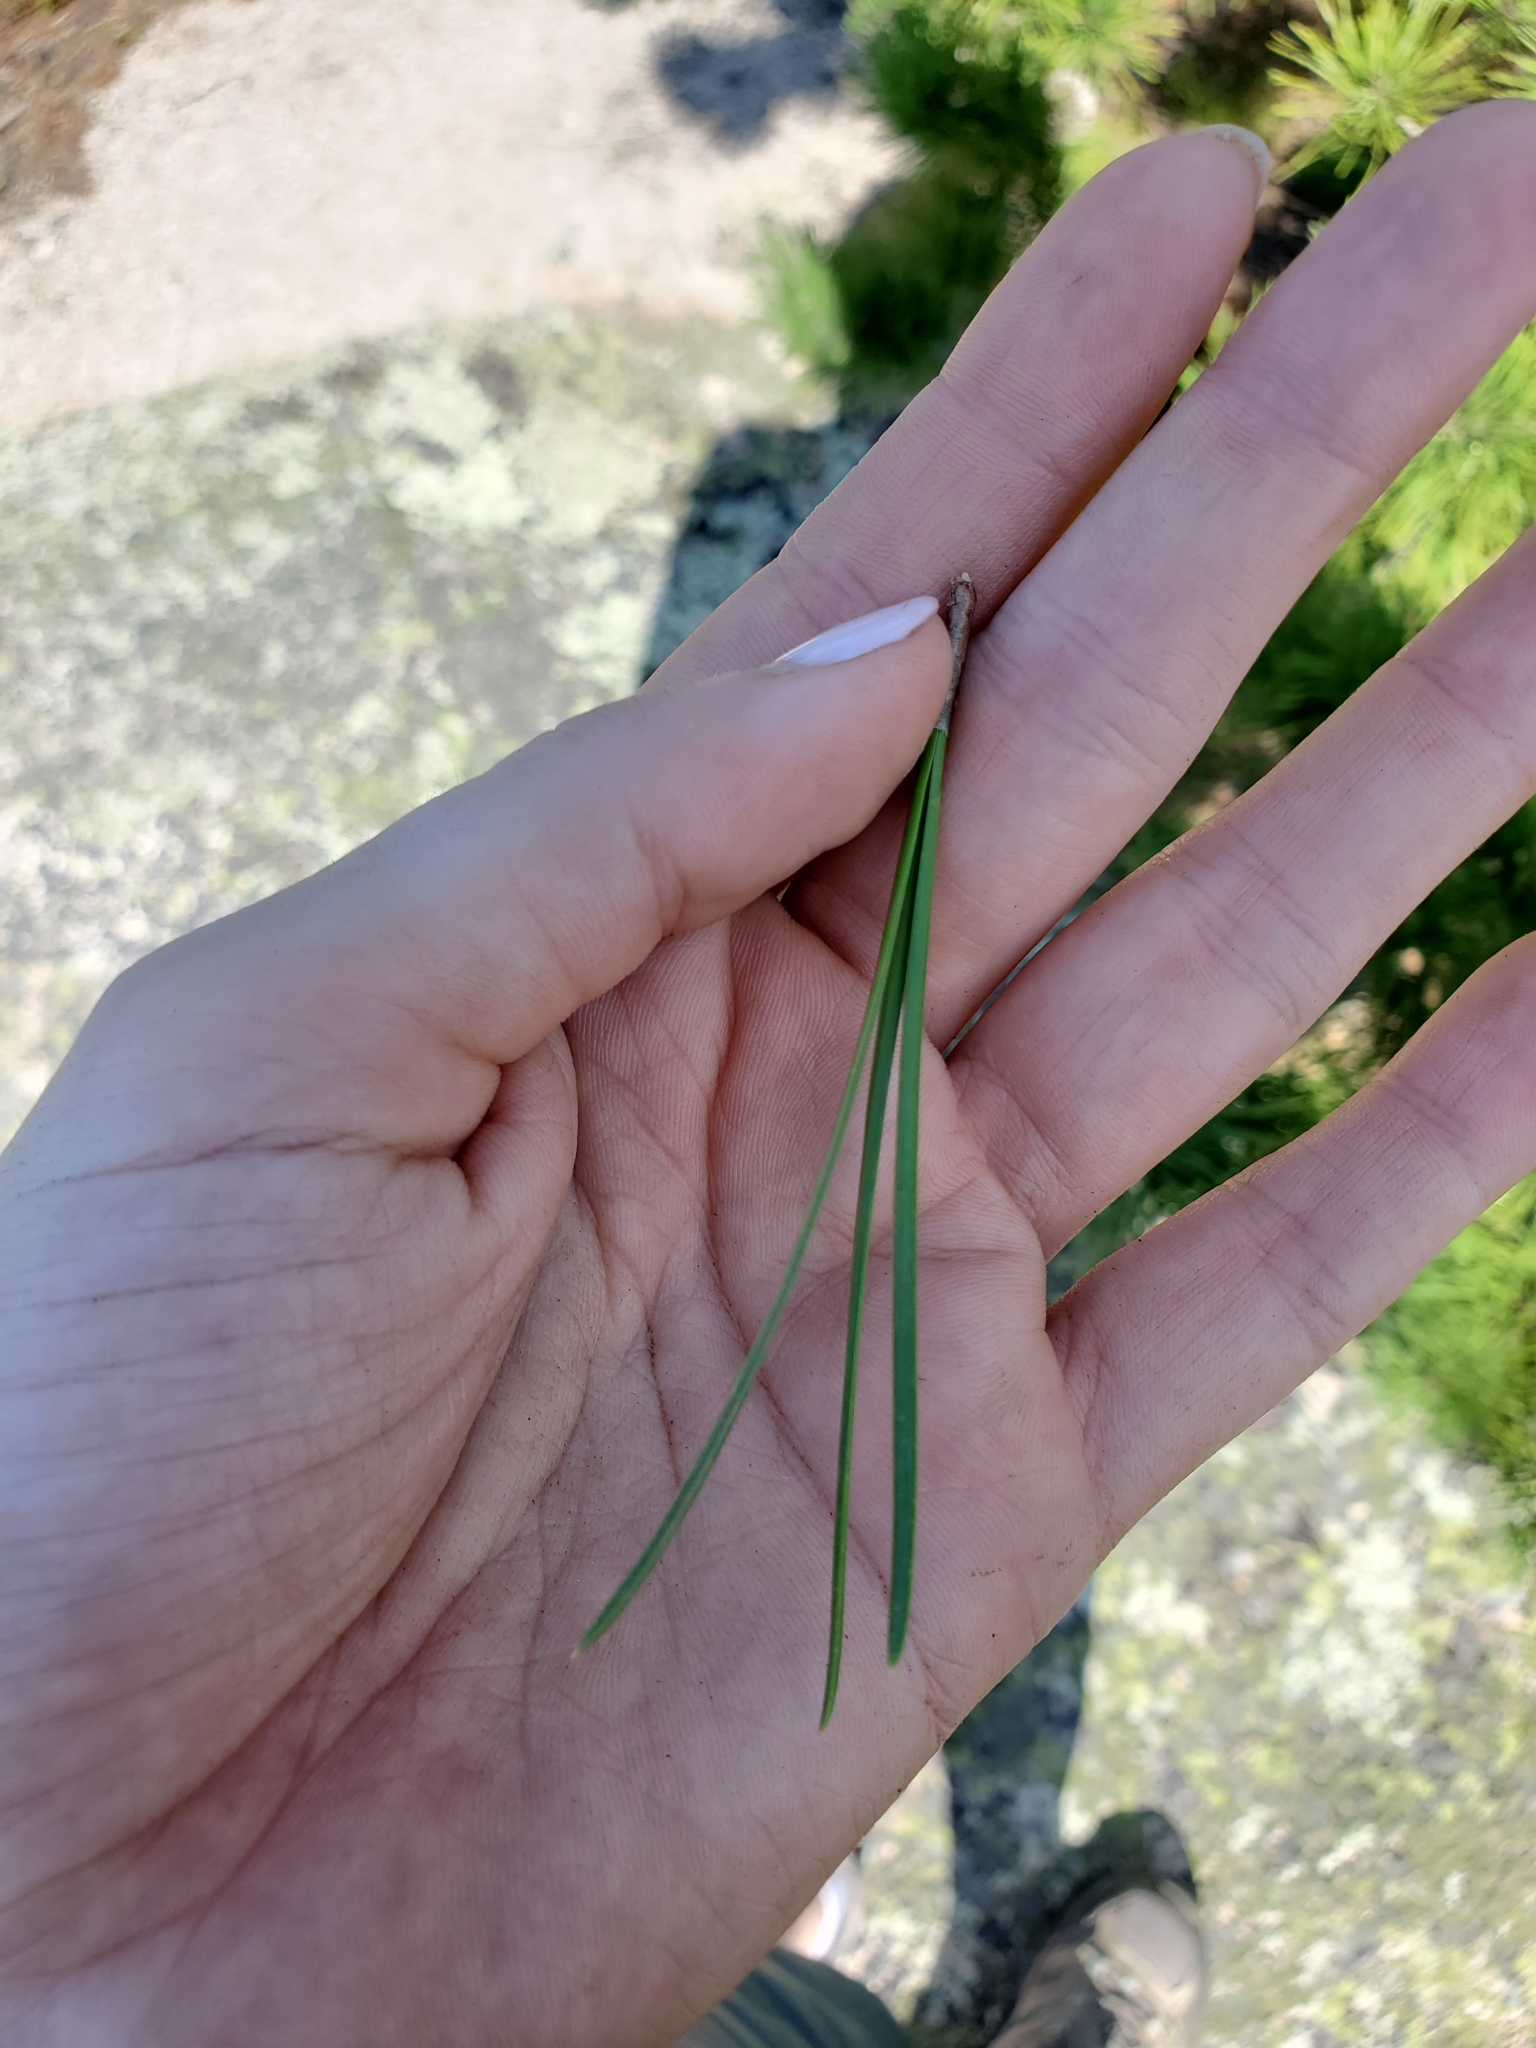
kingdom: Plantae
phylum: Tracheophyta
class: Pinopsida
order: Pinales
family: Pinaceae
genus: Pinus
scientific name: Pinus rigida
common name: Pitch pine
